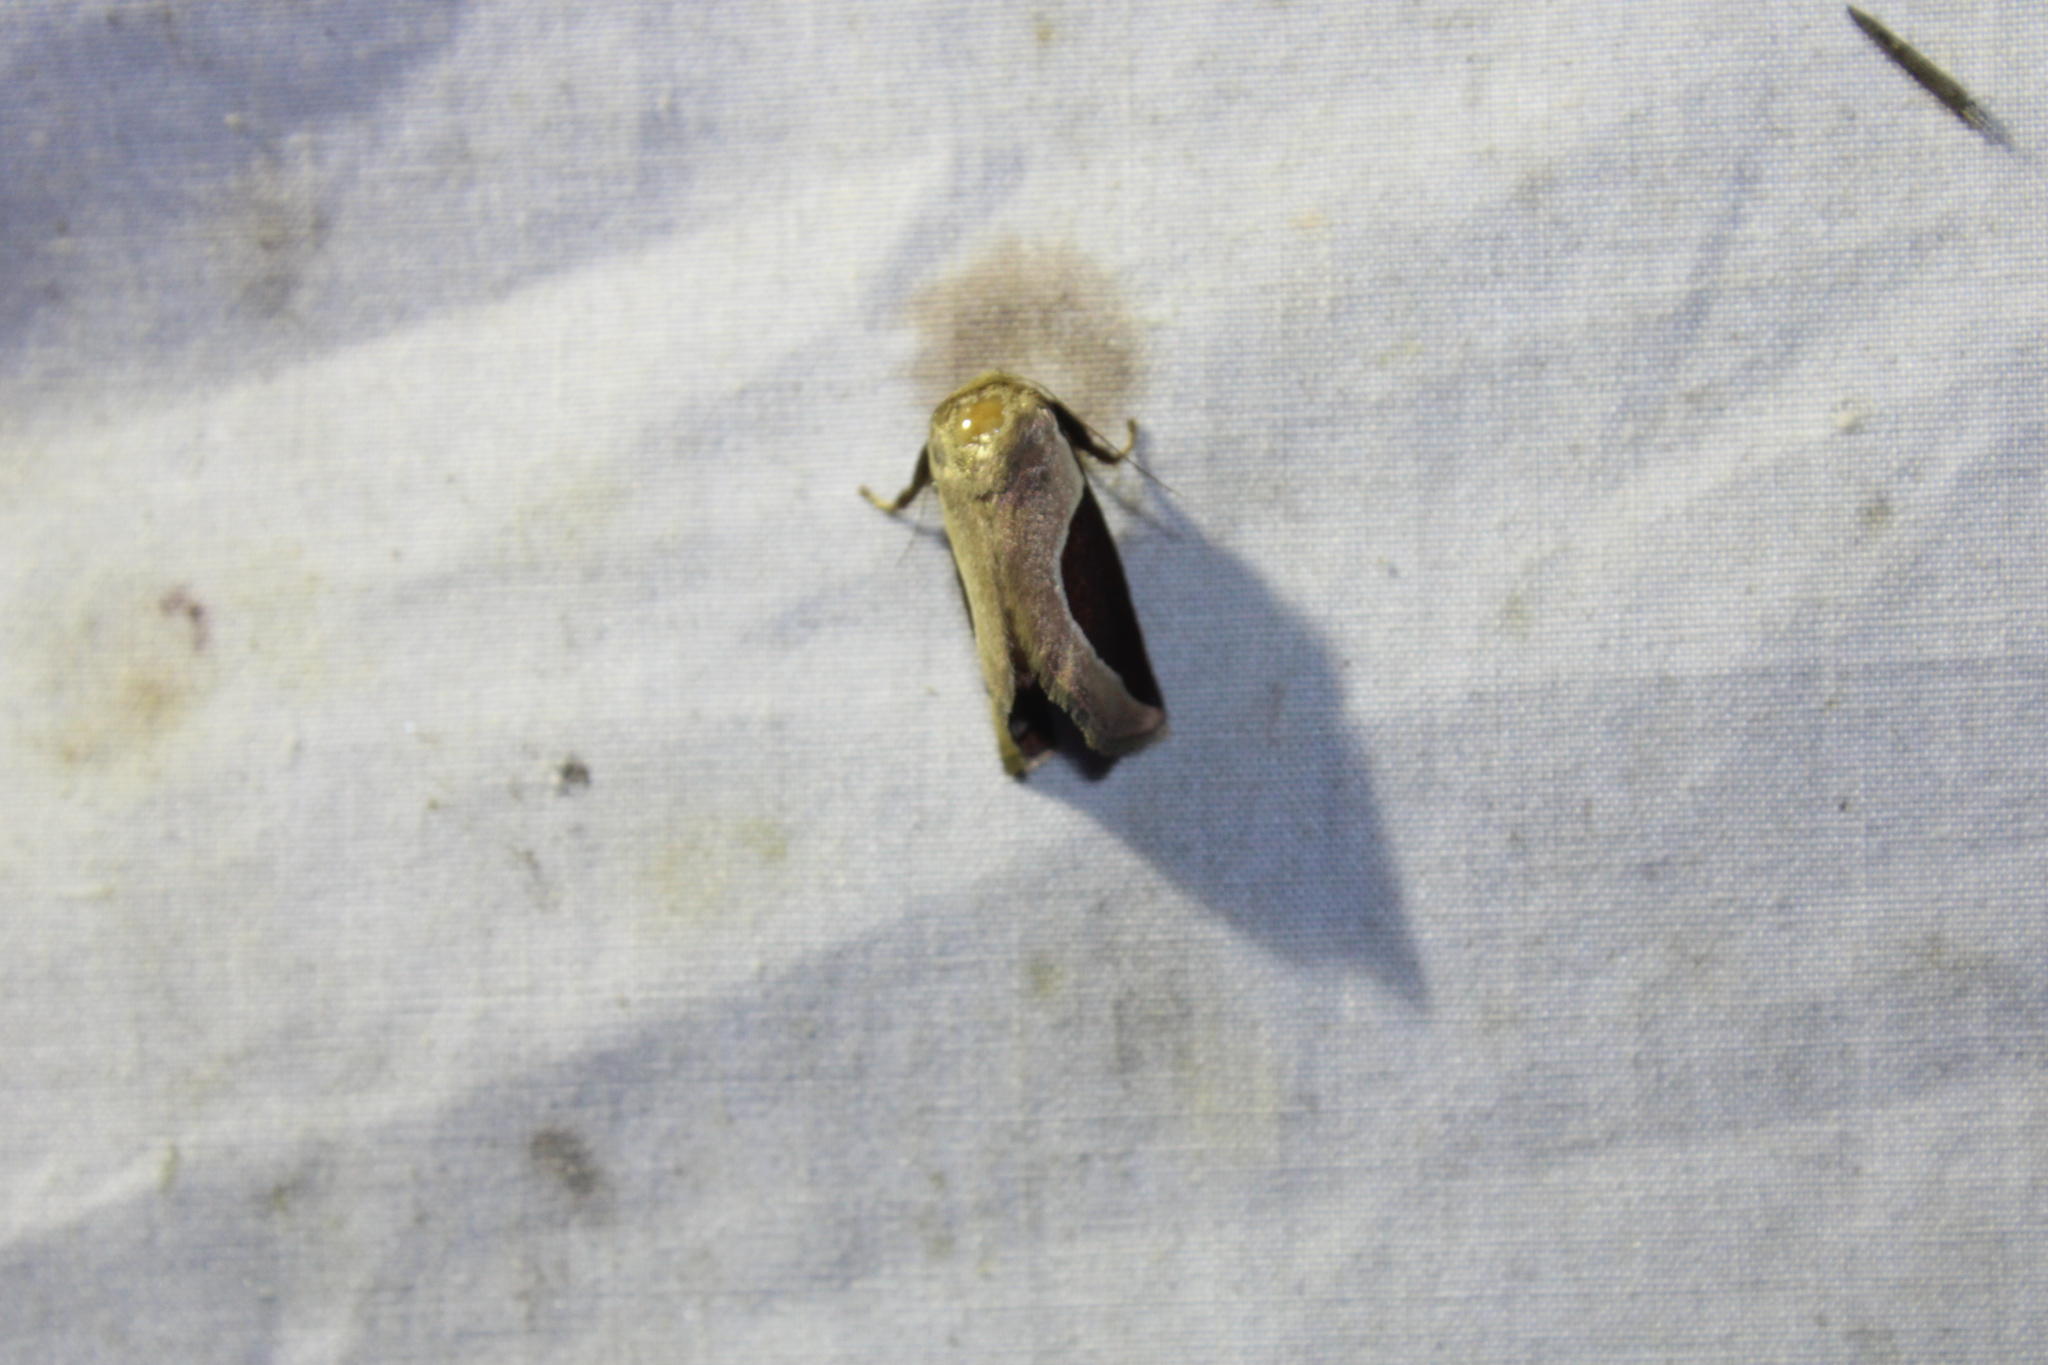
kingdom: Animalia
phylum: Arthropoda
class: Insecta
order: Lepidoptera
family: Limacodidae
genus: Prolimacodes
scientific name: Prolimacodes badia
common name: Skiff moth
